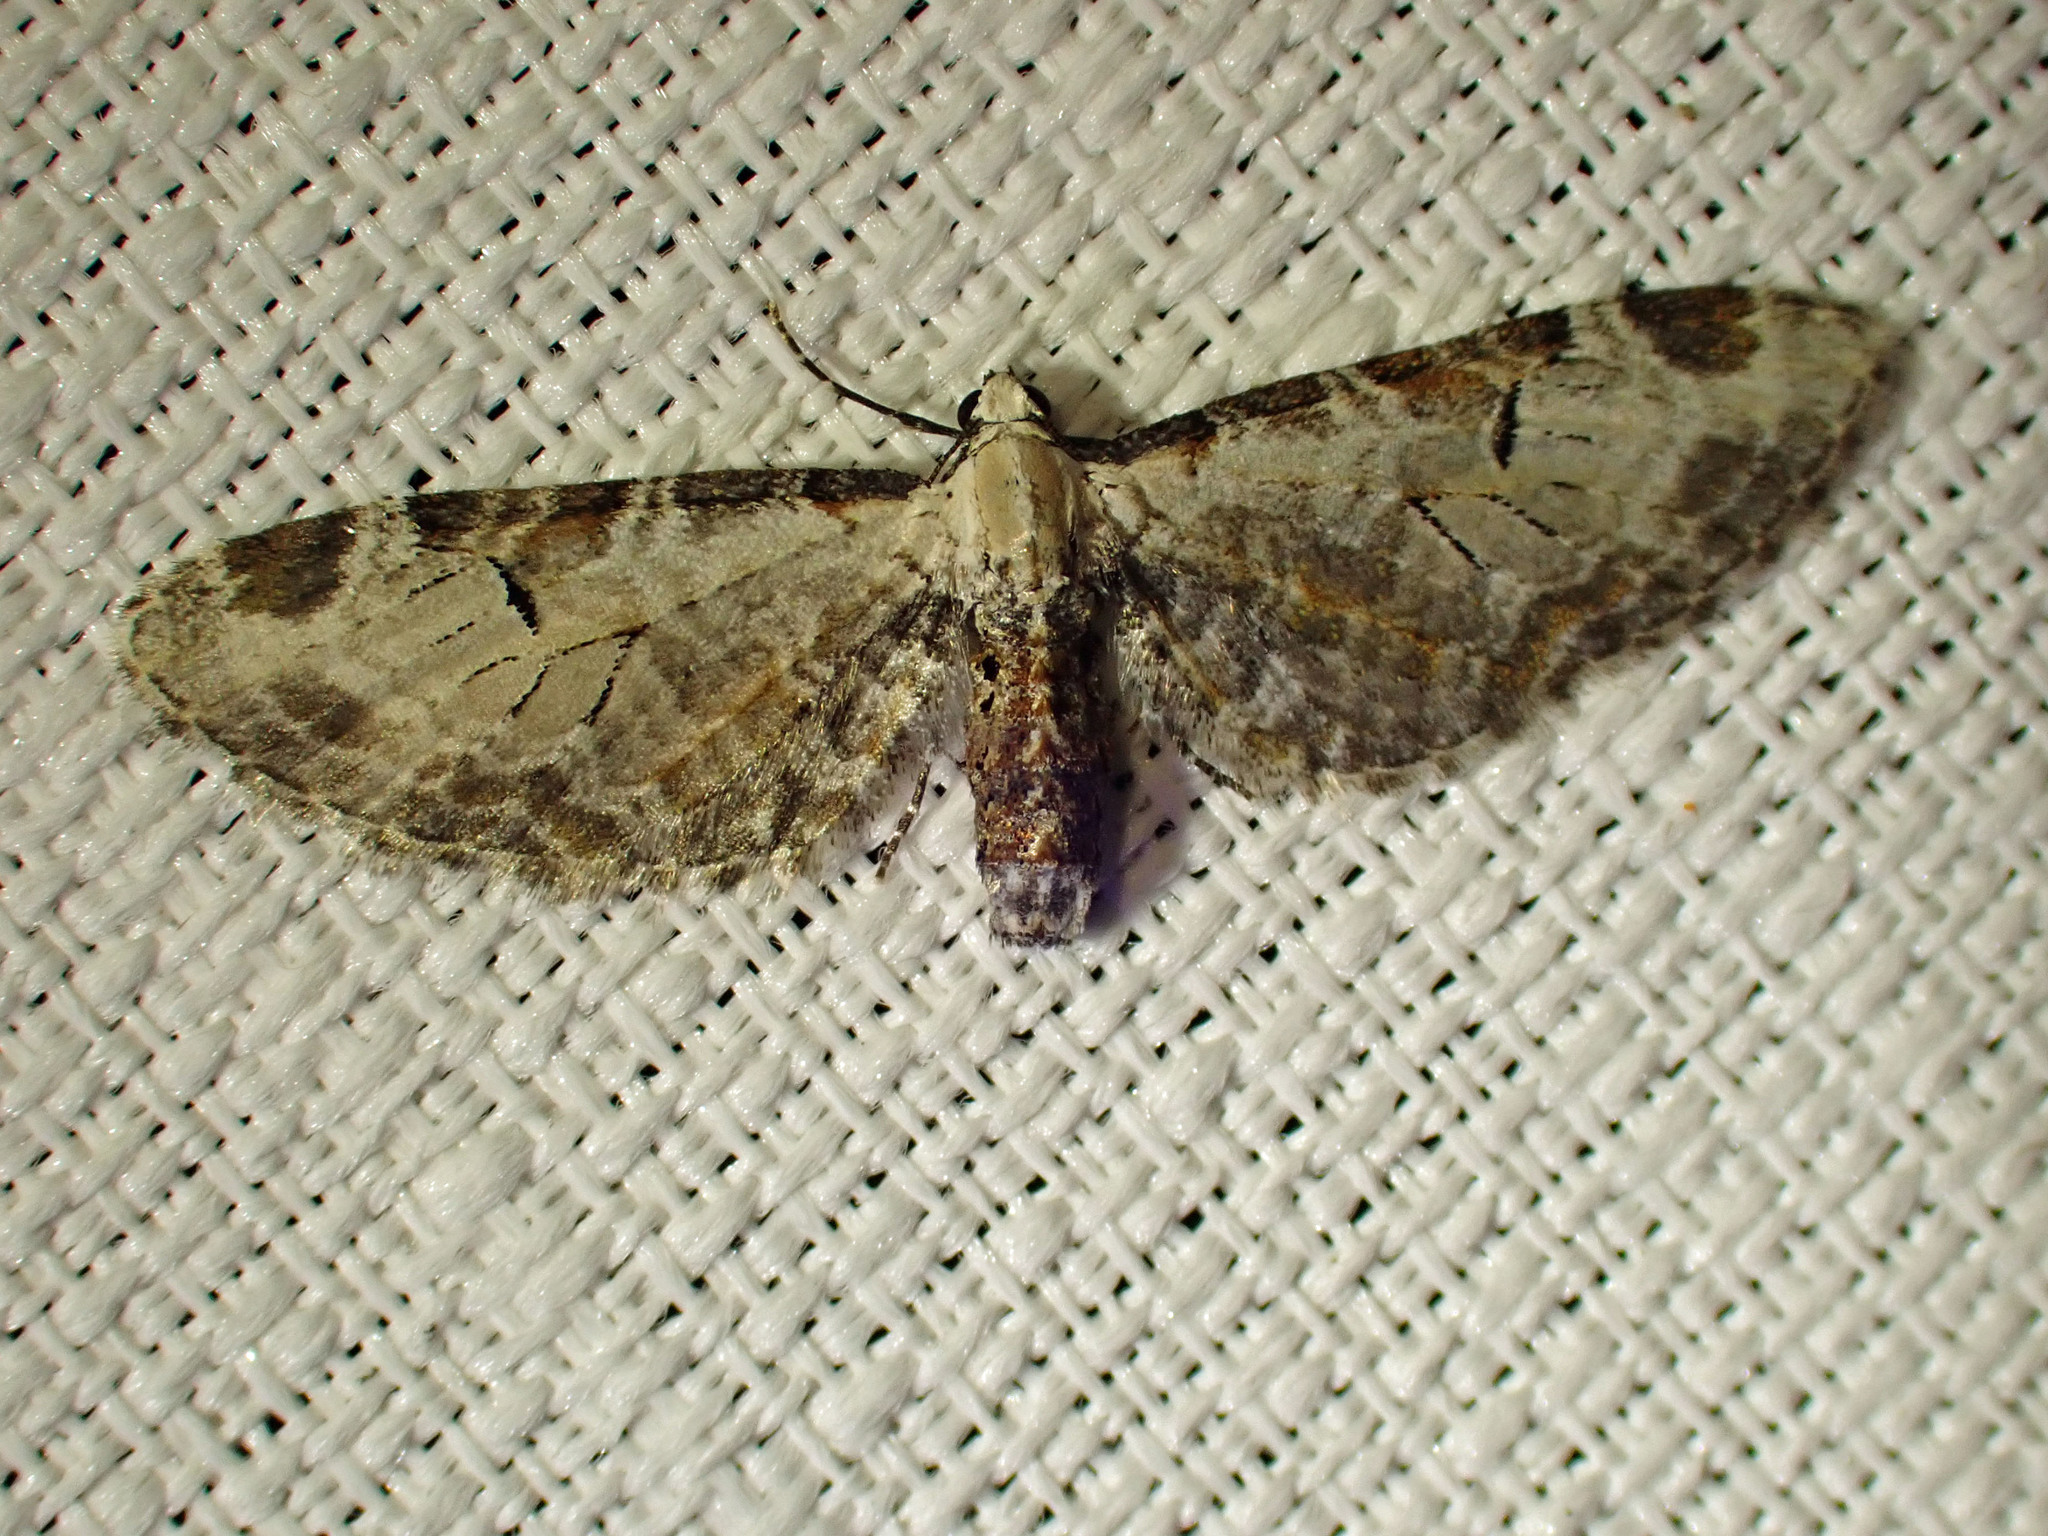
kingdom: Animalia
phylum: Arthropoda
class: Insecta
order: Lepidoptera
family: Geometridae
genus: Eupithecia
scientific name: Eupithecia ravocostaliata
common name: Great varigated pug
